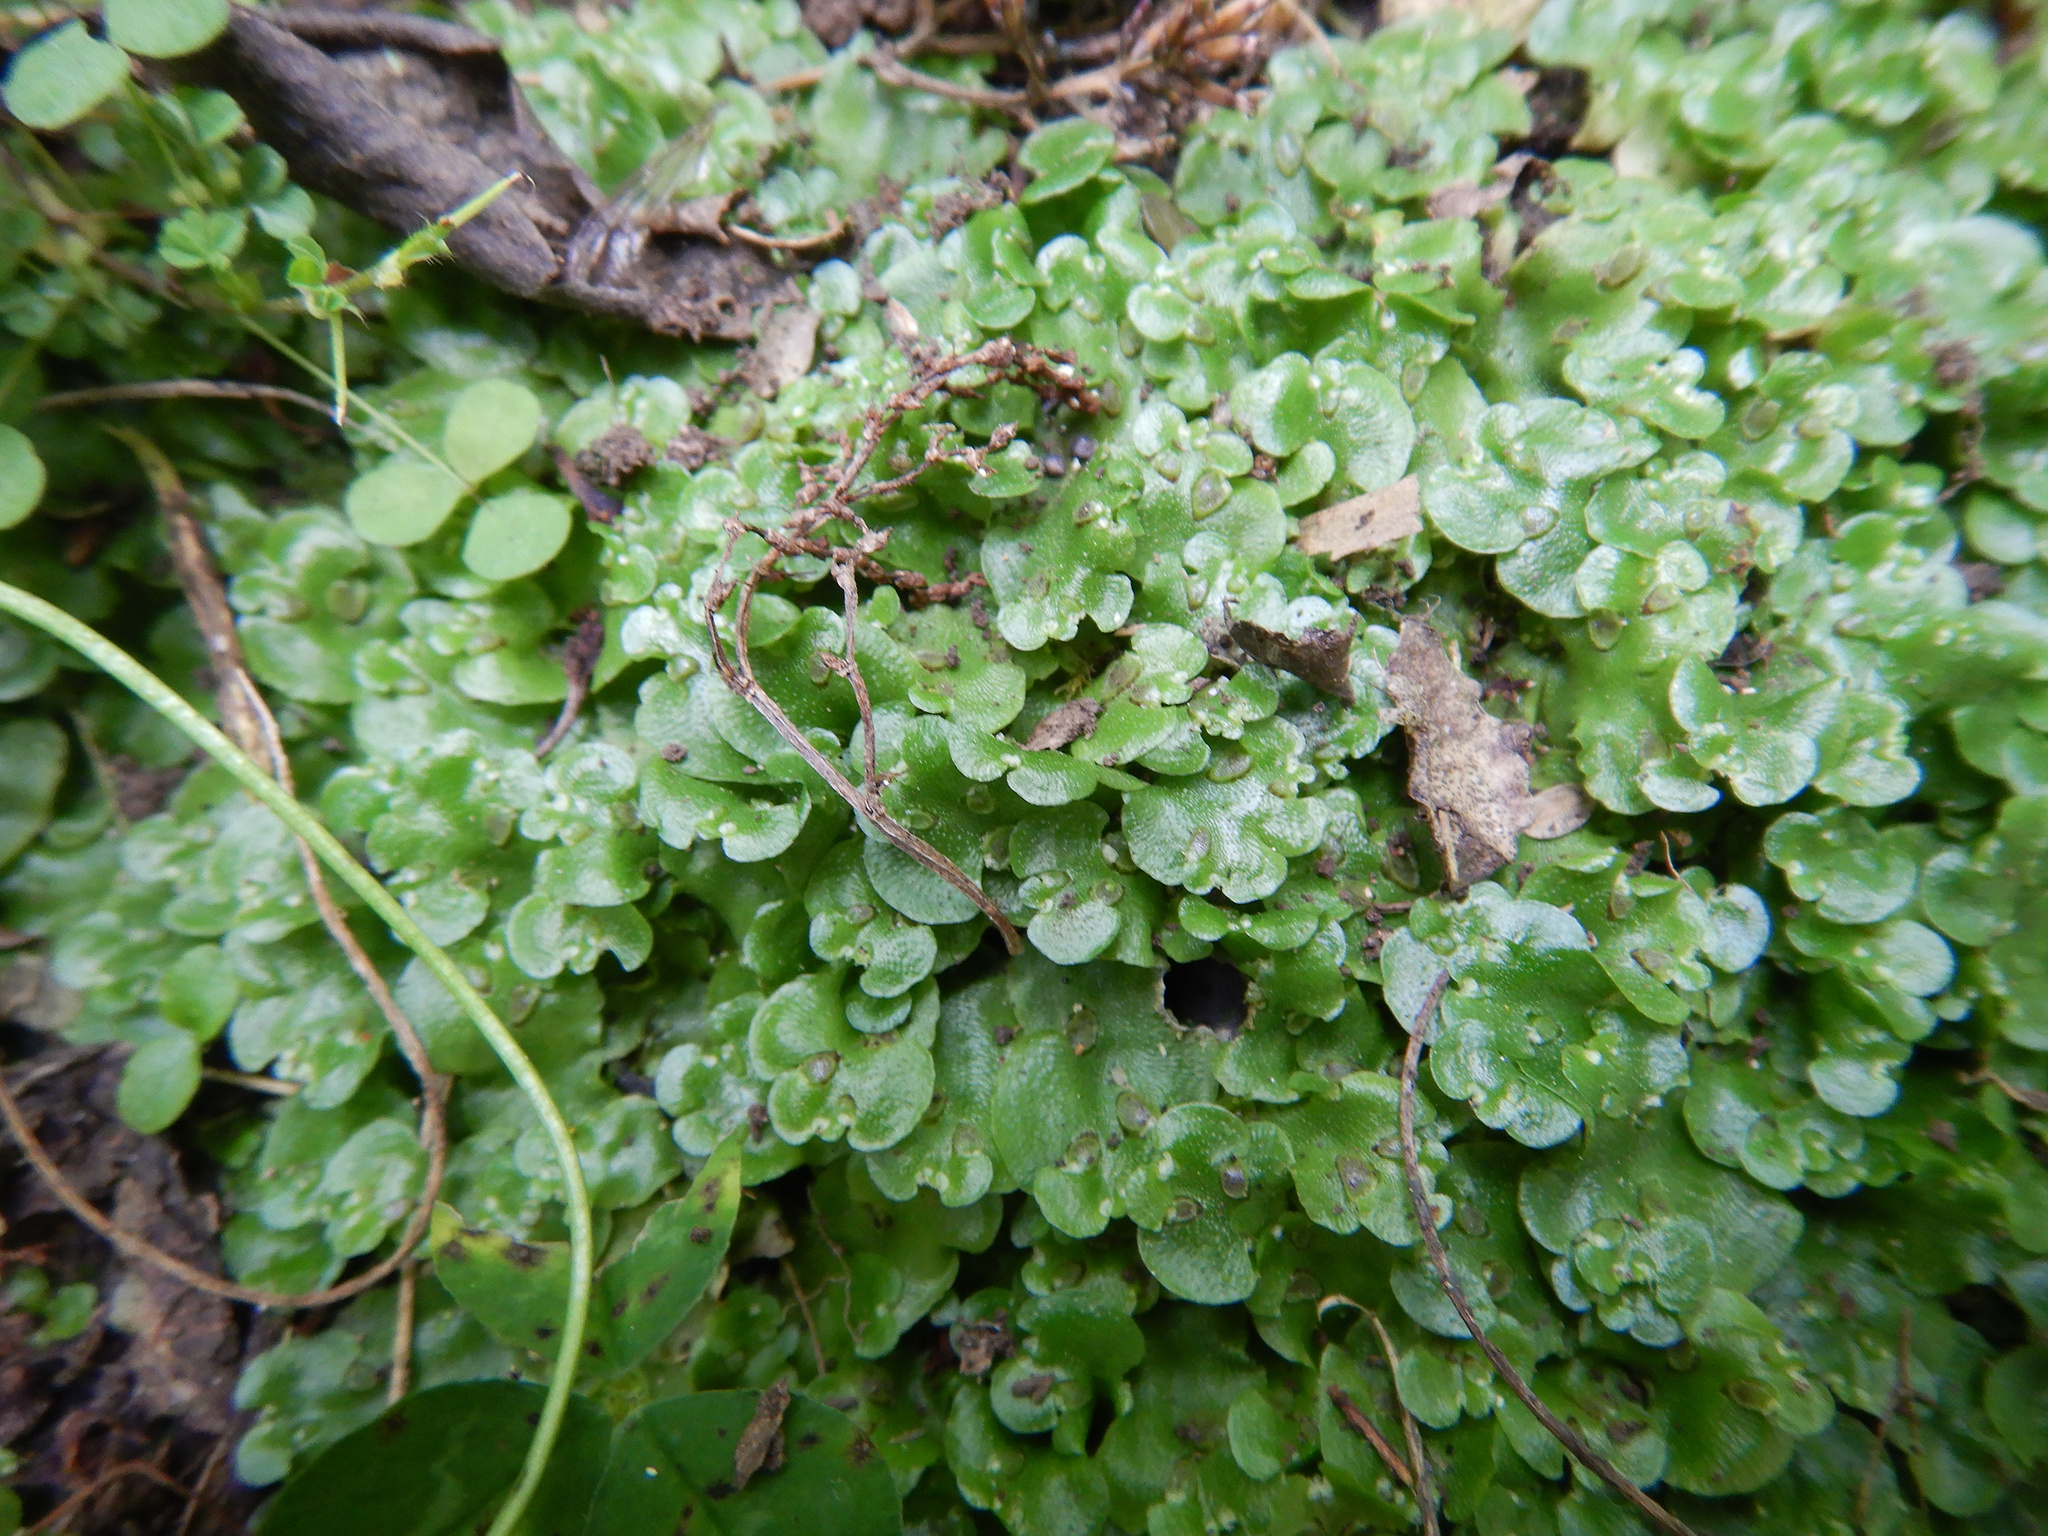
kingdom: Plantae
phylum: Marchantiophyta
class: Marchantiopsida
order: Lunulariales
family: Lunulariaceae
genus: Lunularia
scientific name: Lunularia cruciata
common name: Crescent-cup liverwort
